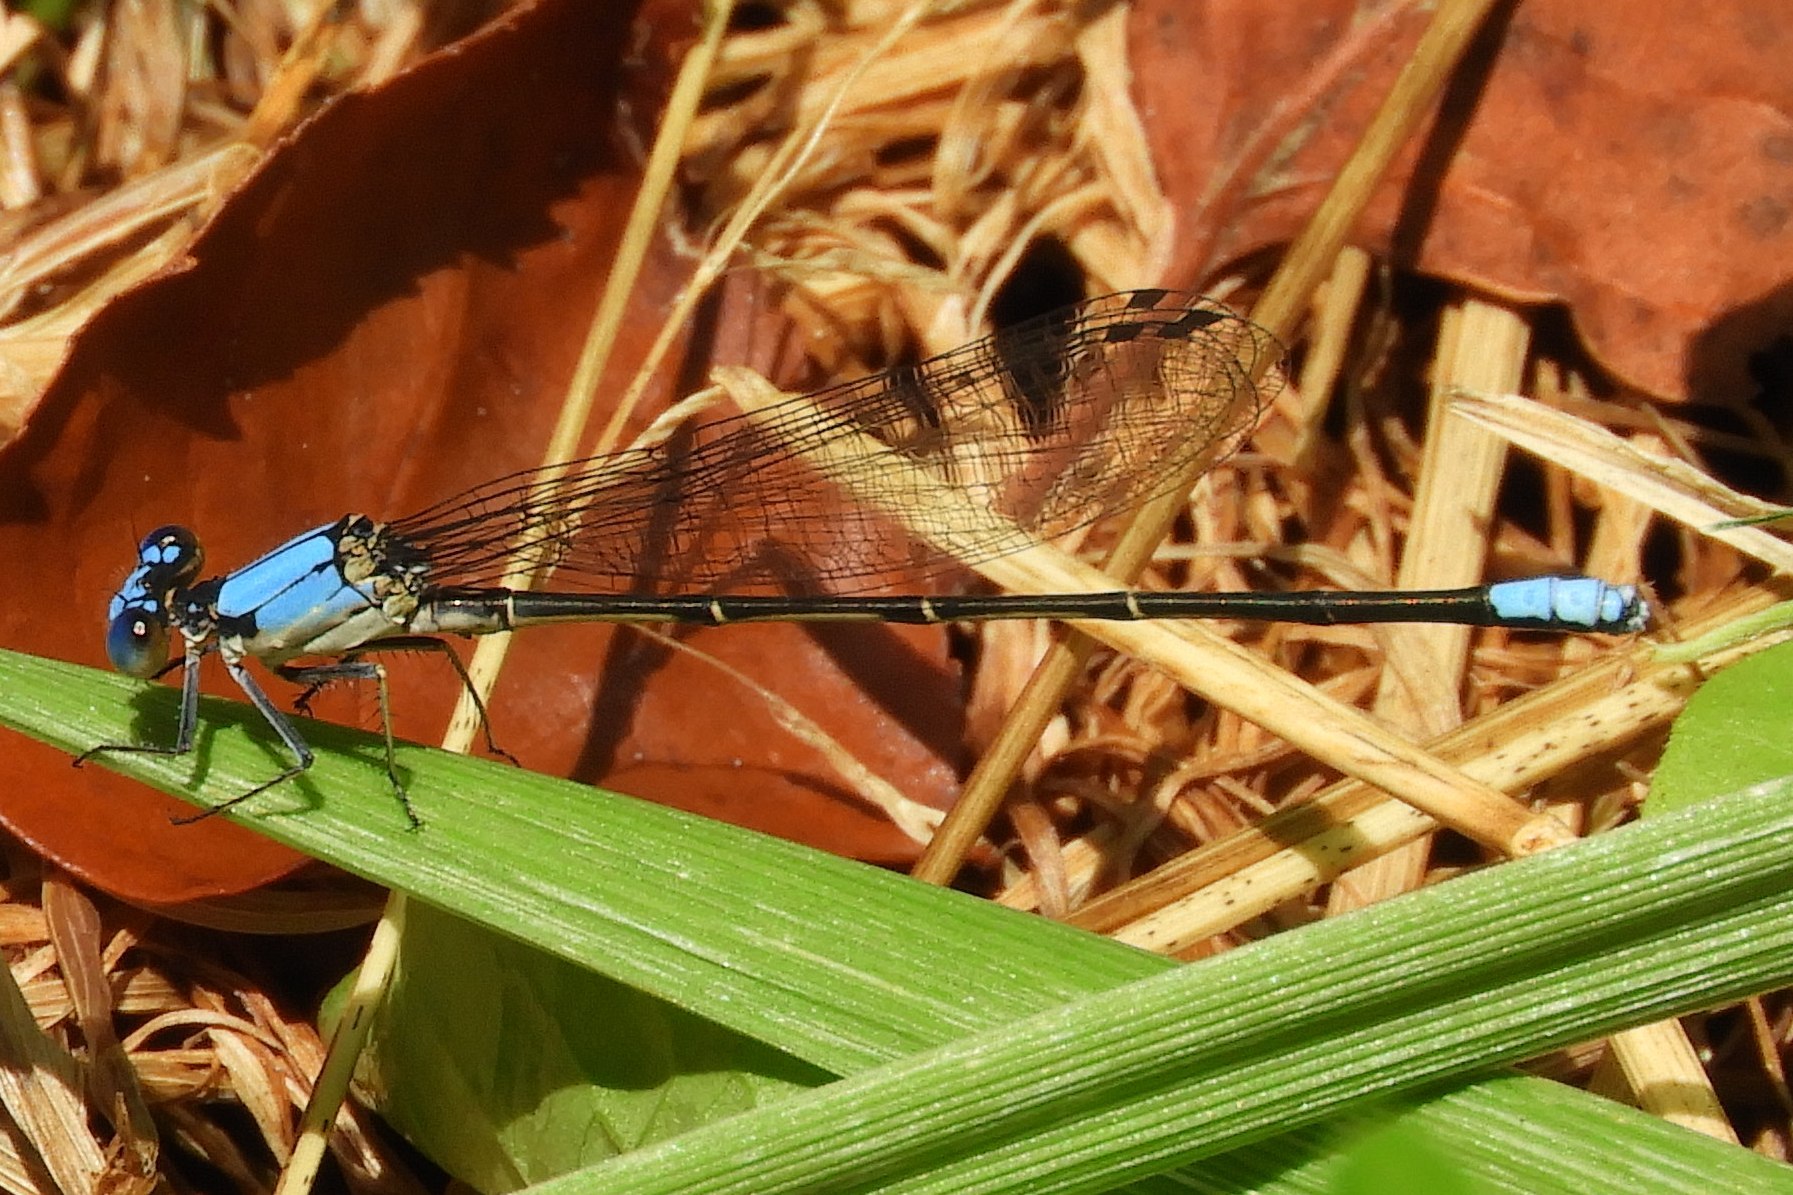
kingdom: Animalia
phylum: Arthropoda
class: Insecta
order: Odonata
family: Coenagrionidae
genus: Argia
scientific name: Argia apicalis
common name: Blue-fronted dancer
